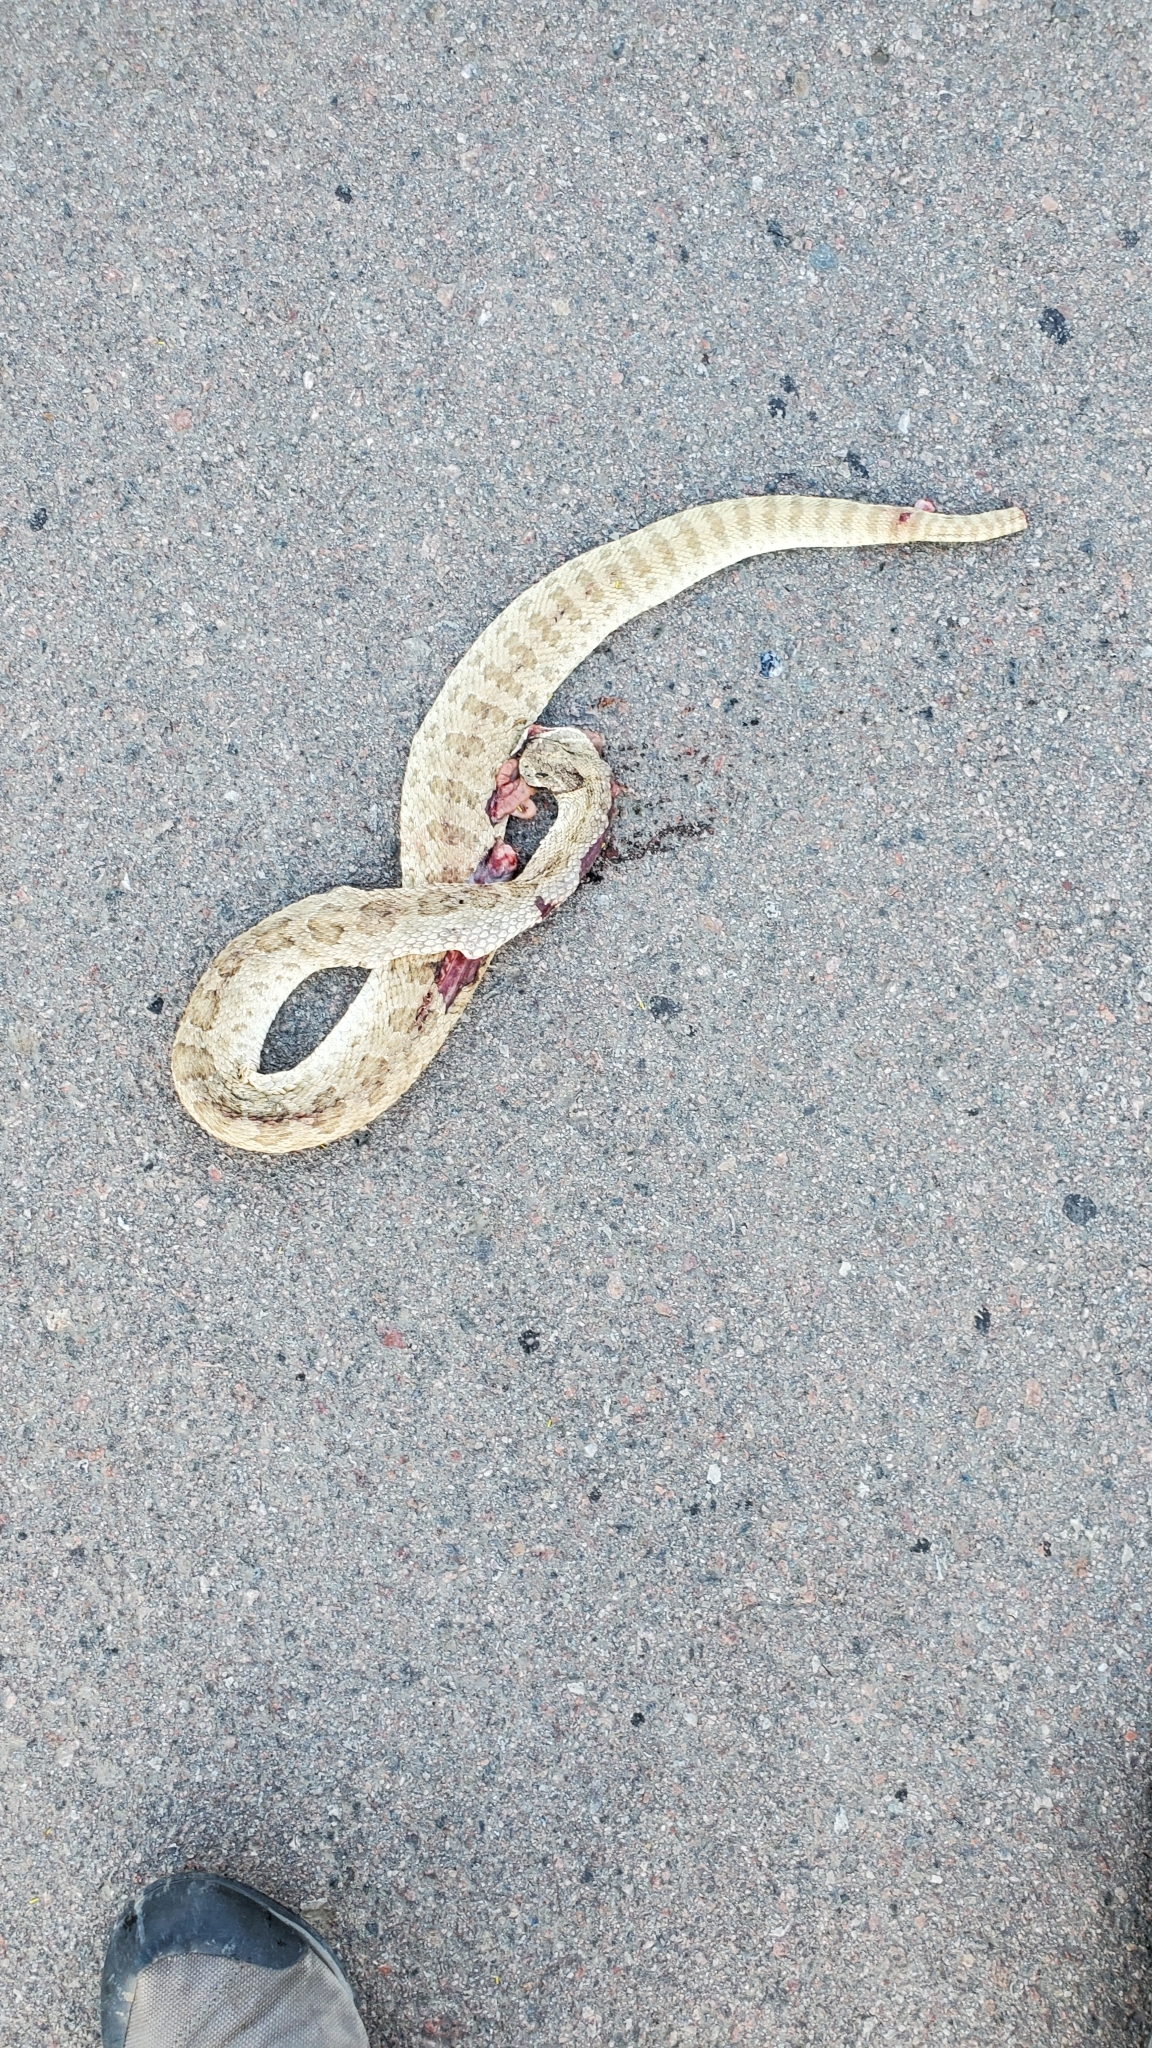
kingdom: Animalia
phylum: Chordata
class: Squamata
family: Viperidae
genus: Crotalus
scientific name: Crotalus viridis
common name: Prairie rattlesnake
